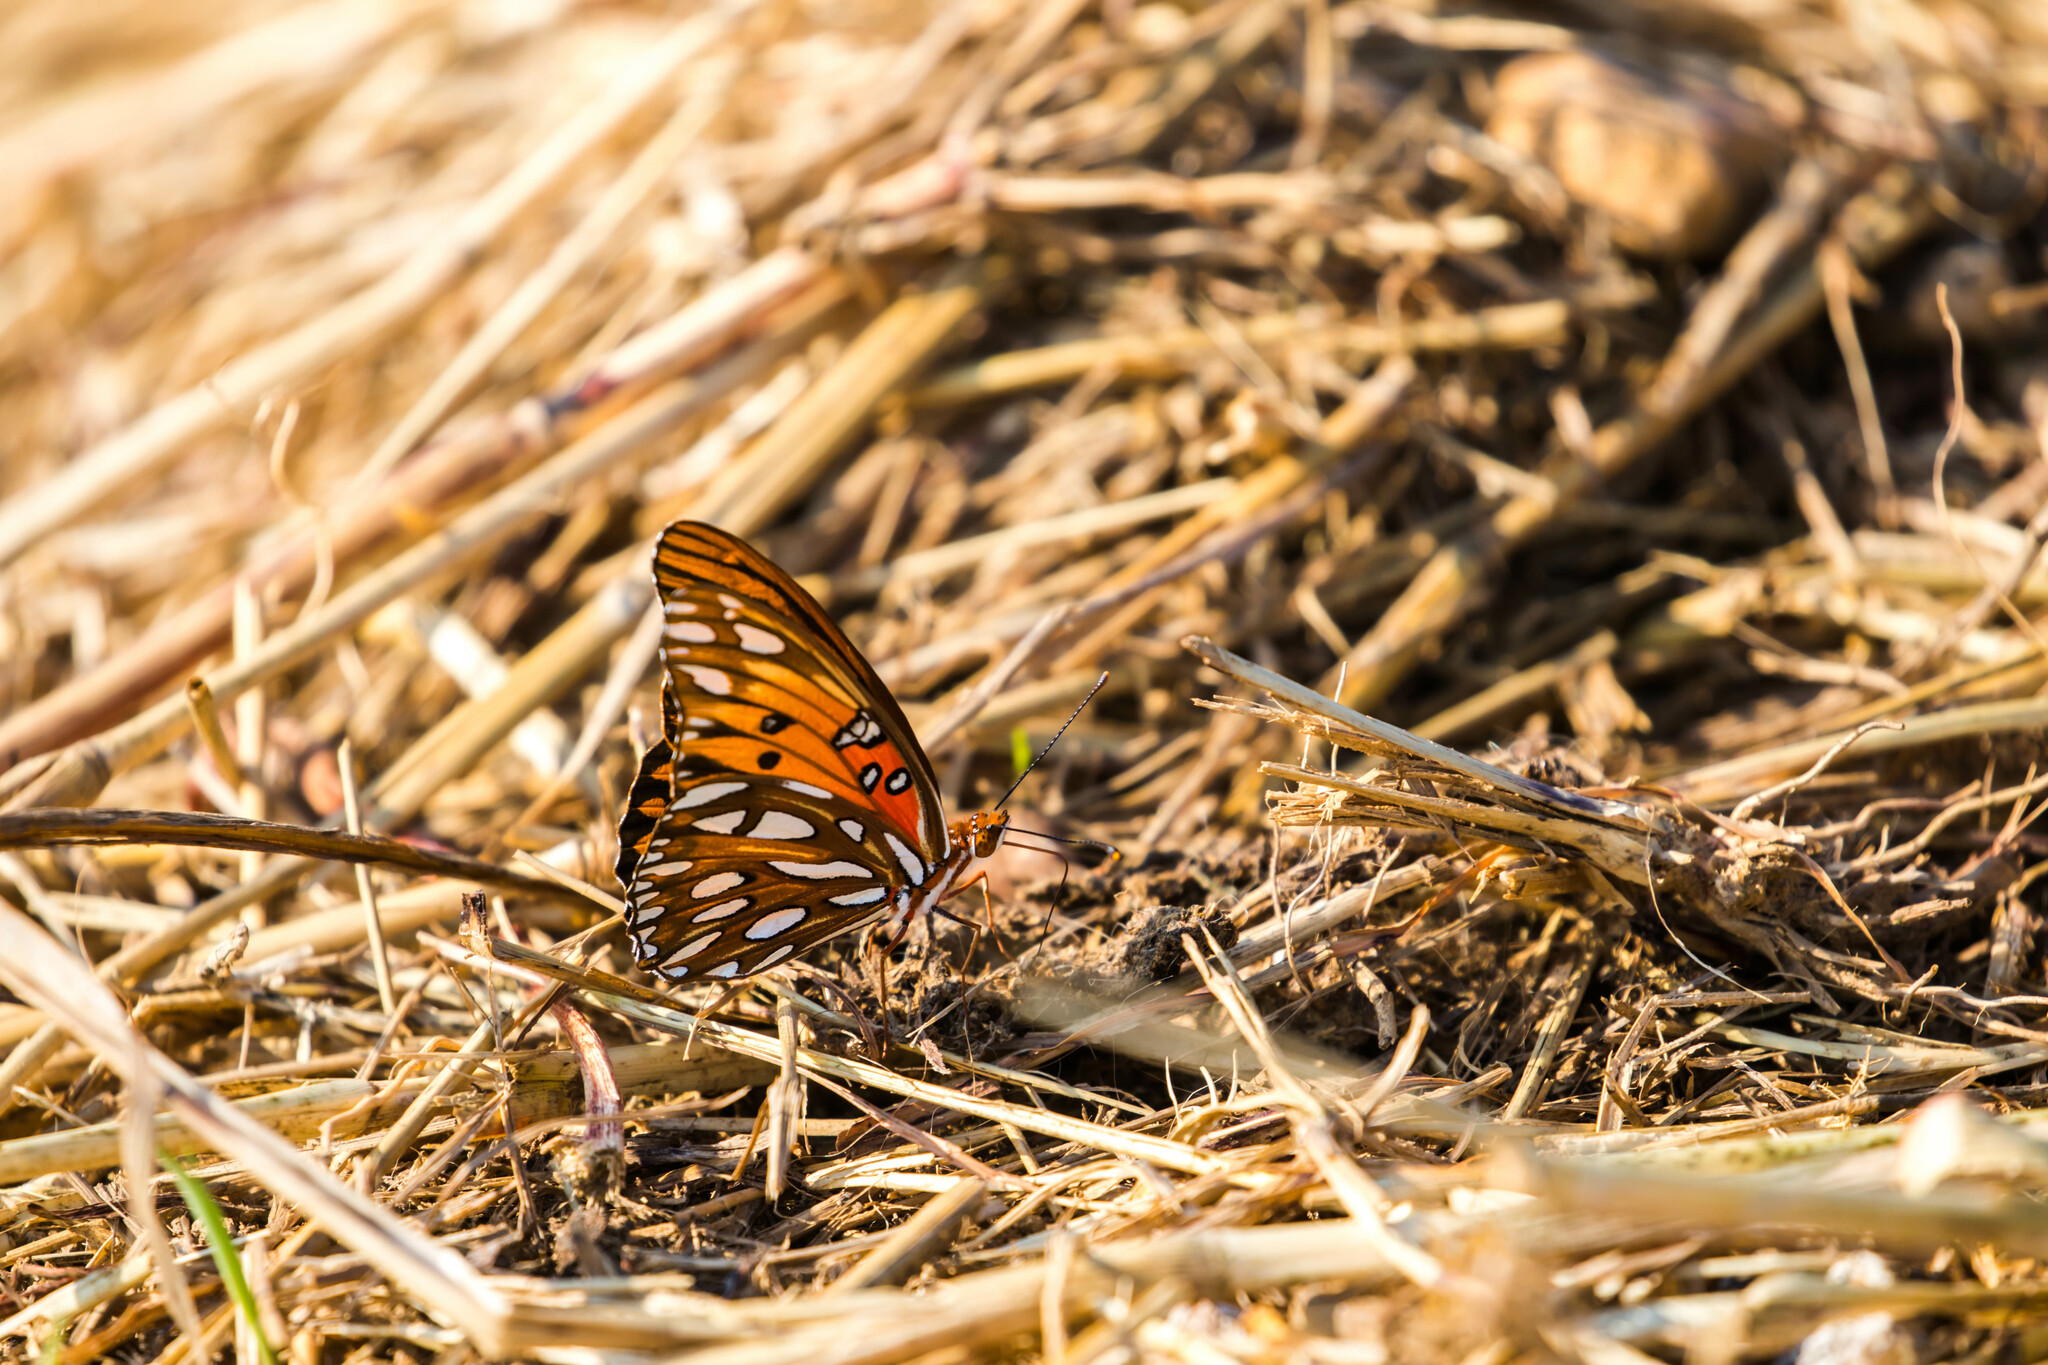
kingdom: Animalia
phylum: Arthropoda
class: Insecta
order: Lepidoptera
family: Nymphalidae
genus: Dione
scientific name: Dione vanillae
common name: Gulf fritillary
